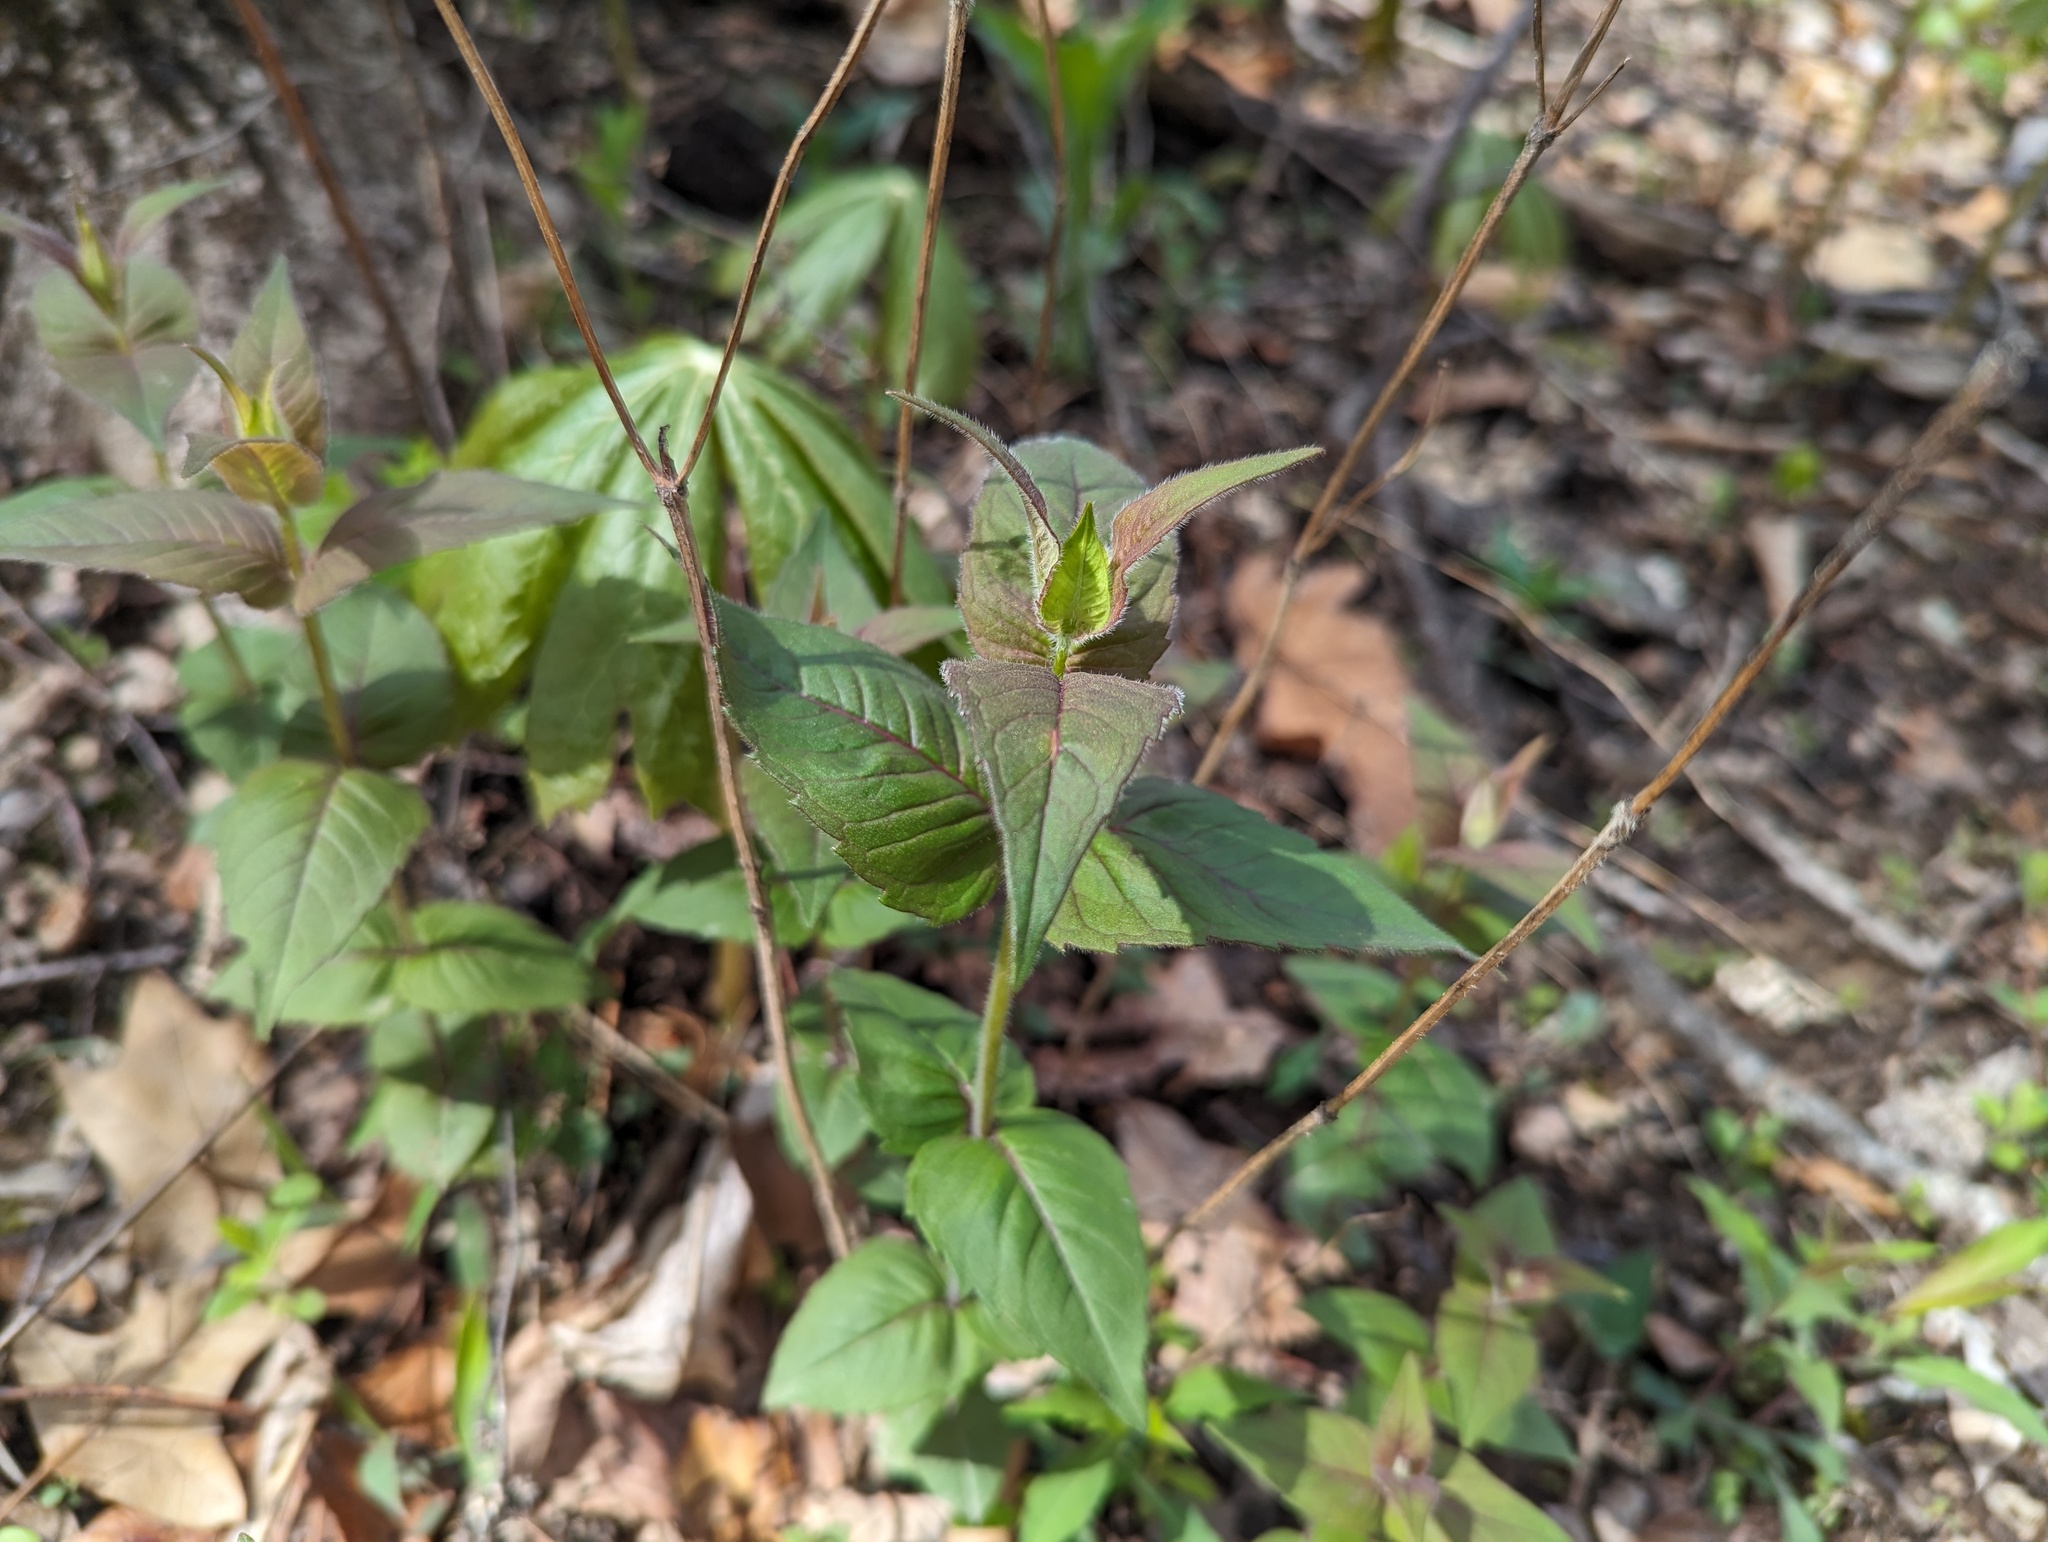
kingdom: Plantae
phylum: Tracheophyta
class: Magnoliopsida
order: Lamiales
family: Lamiaceae
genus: Monarda
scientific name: Monarda bradburiana
